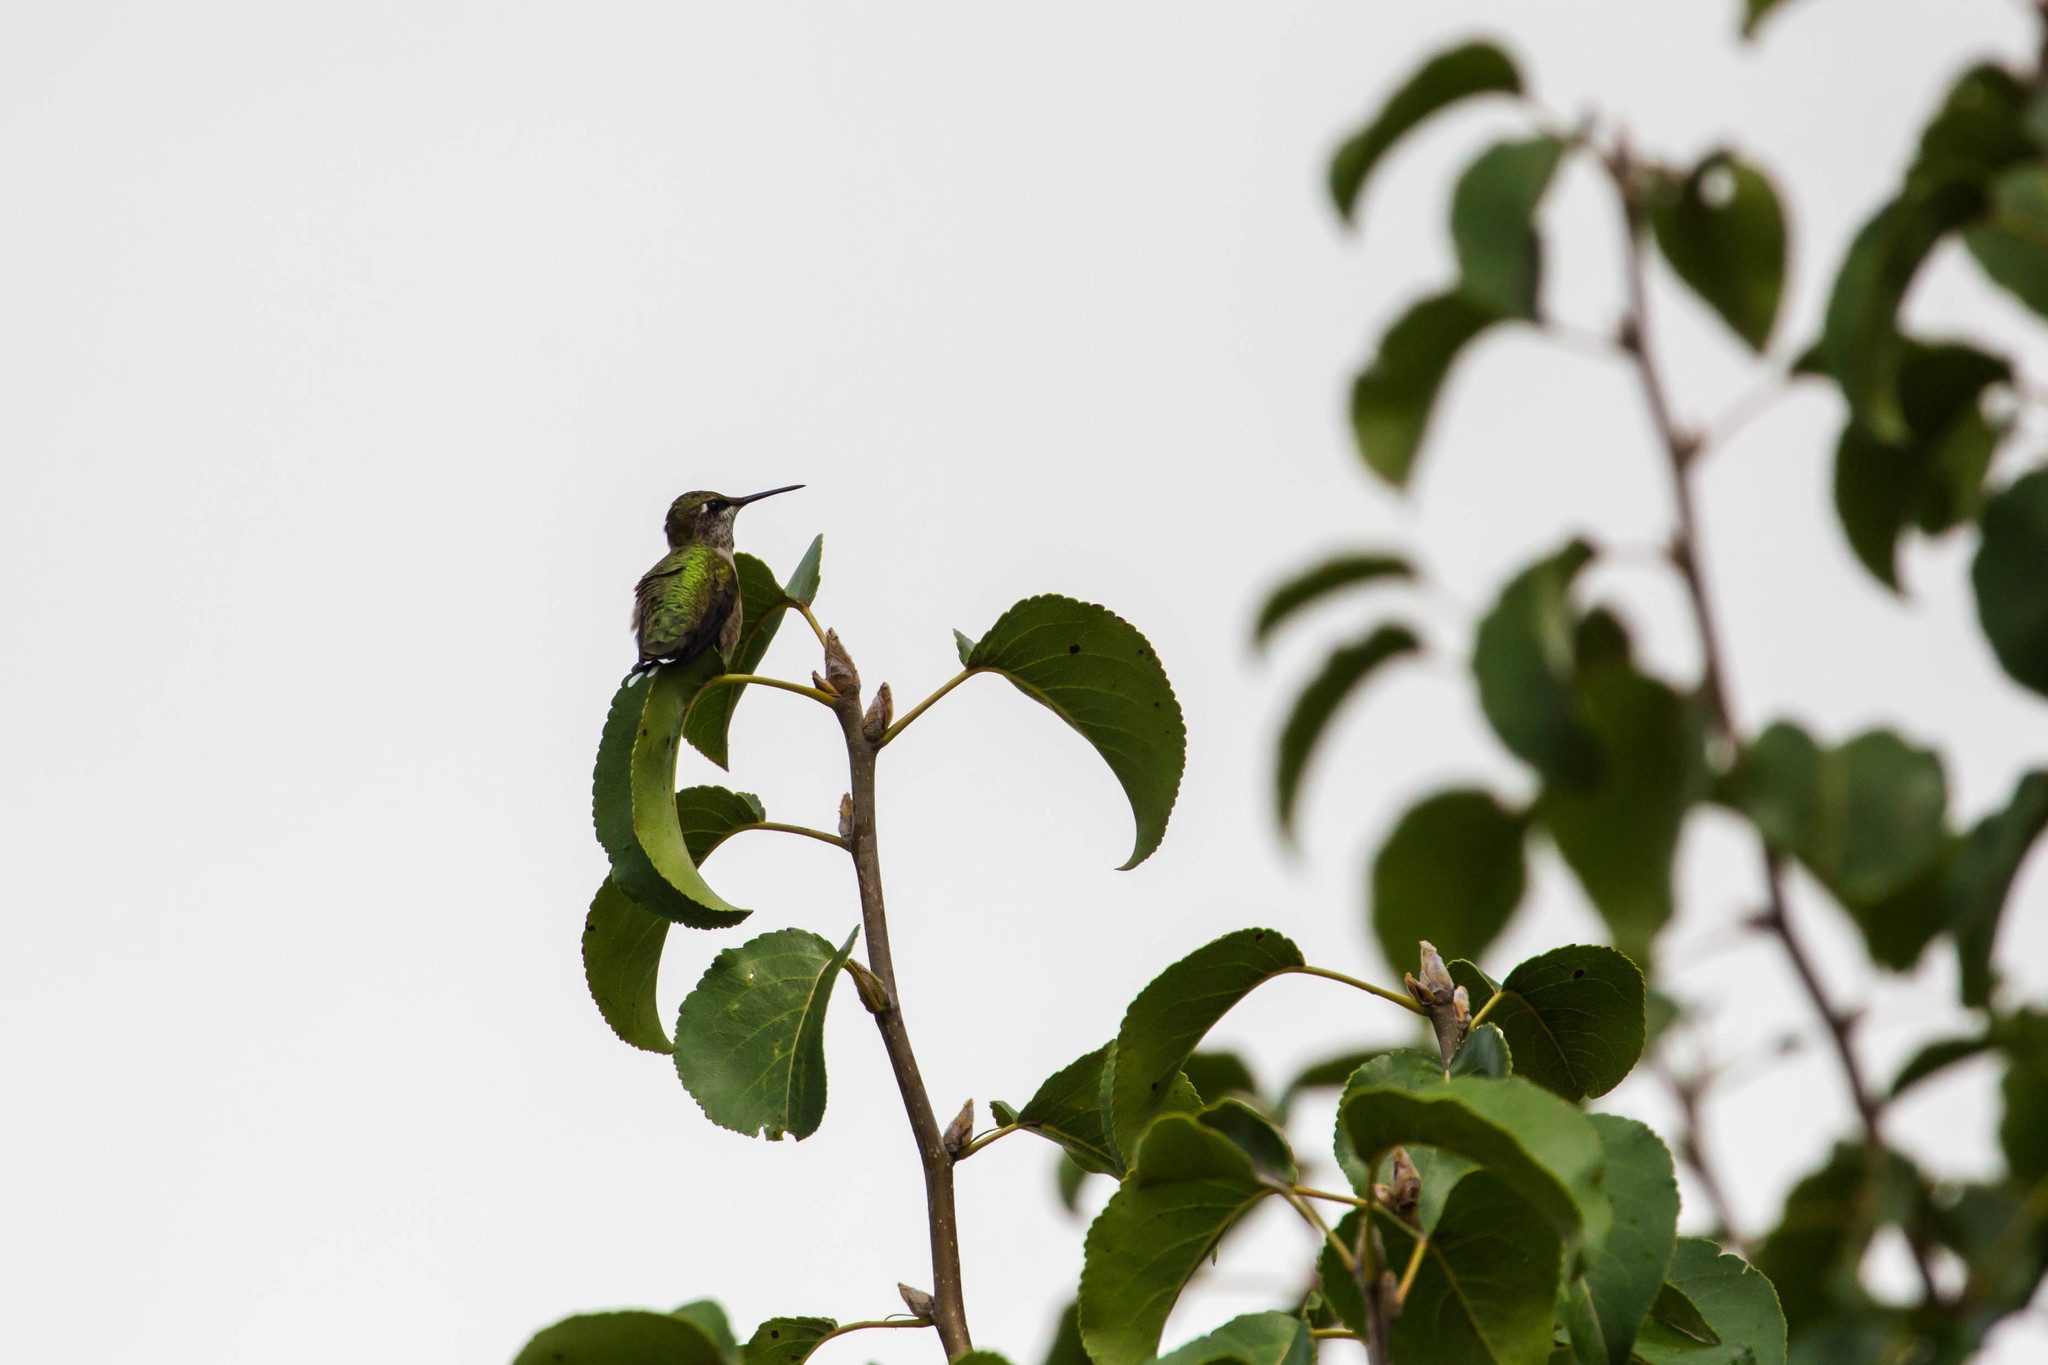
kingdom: Animalia
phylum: Chordata
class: Aves
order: Apodiformes
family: Trochilidae
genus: Archilochus
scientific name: Archilochus colubris
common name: Ruby-throated hummingbird
